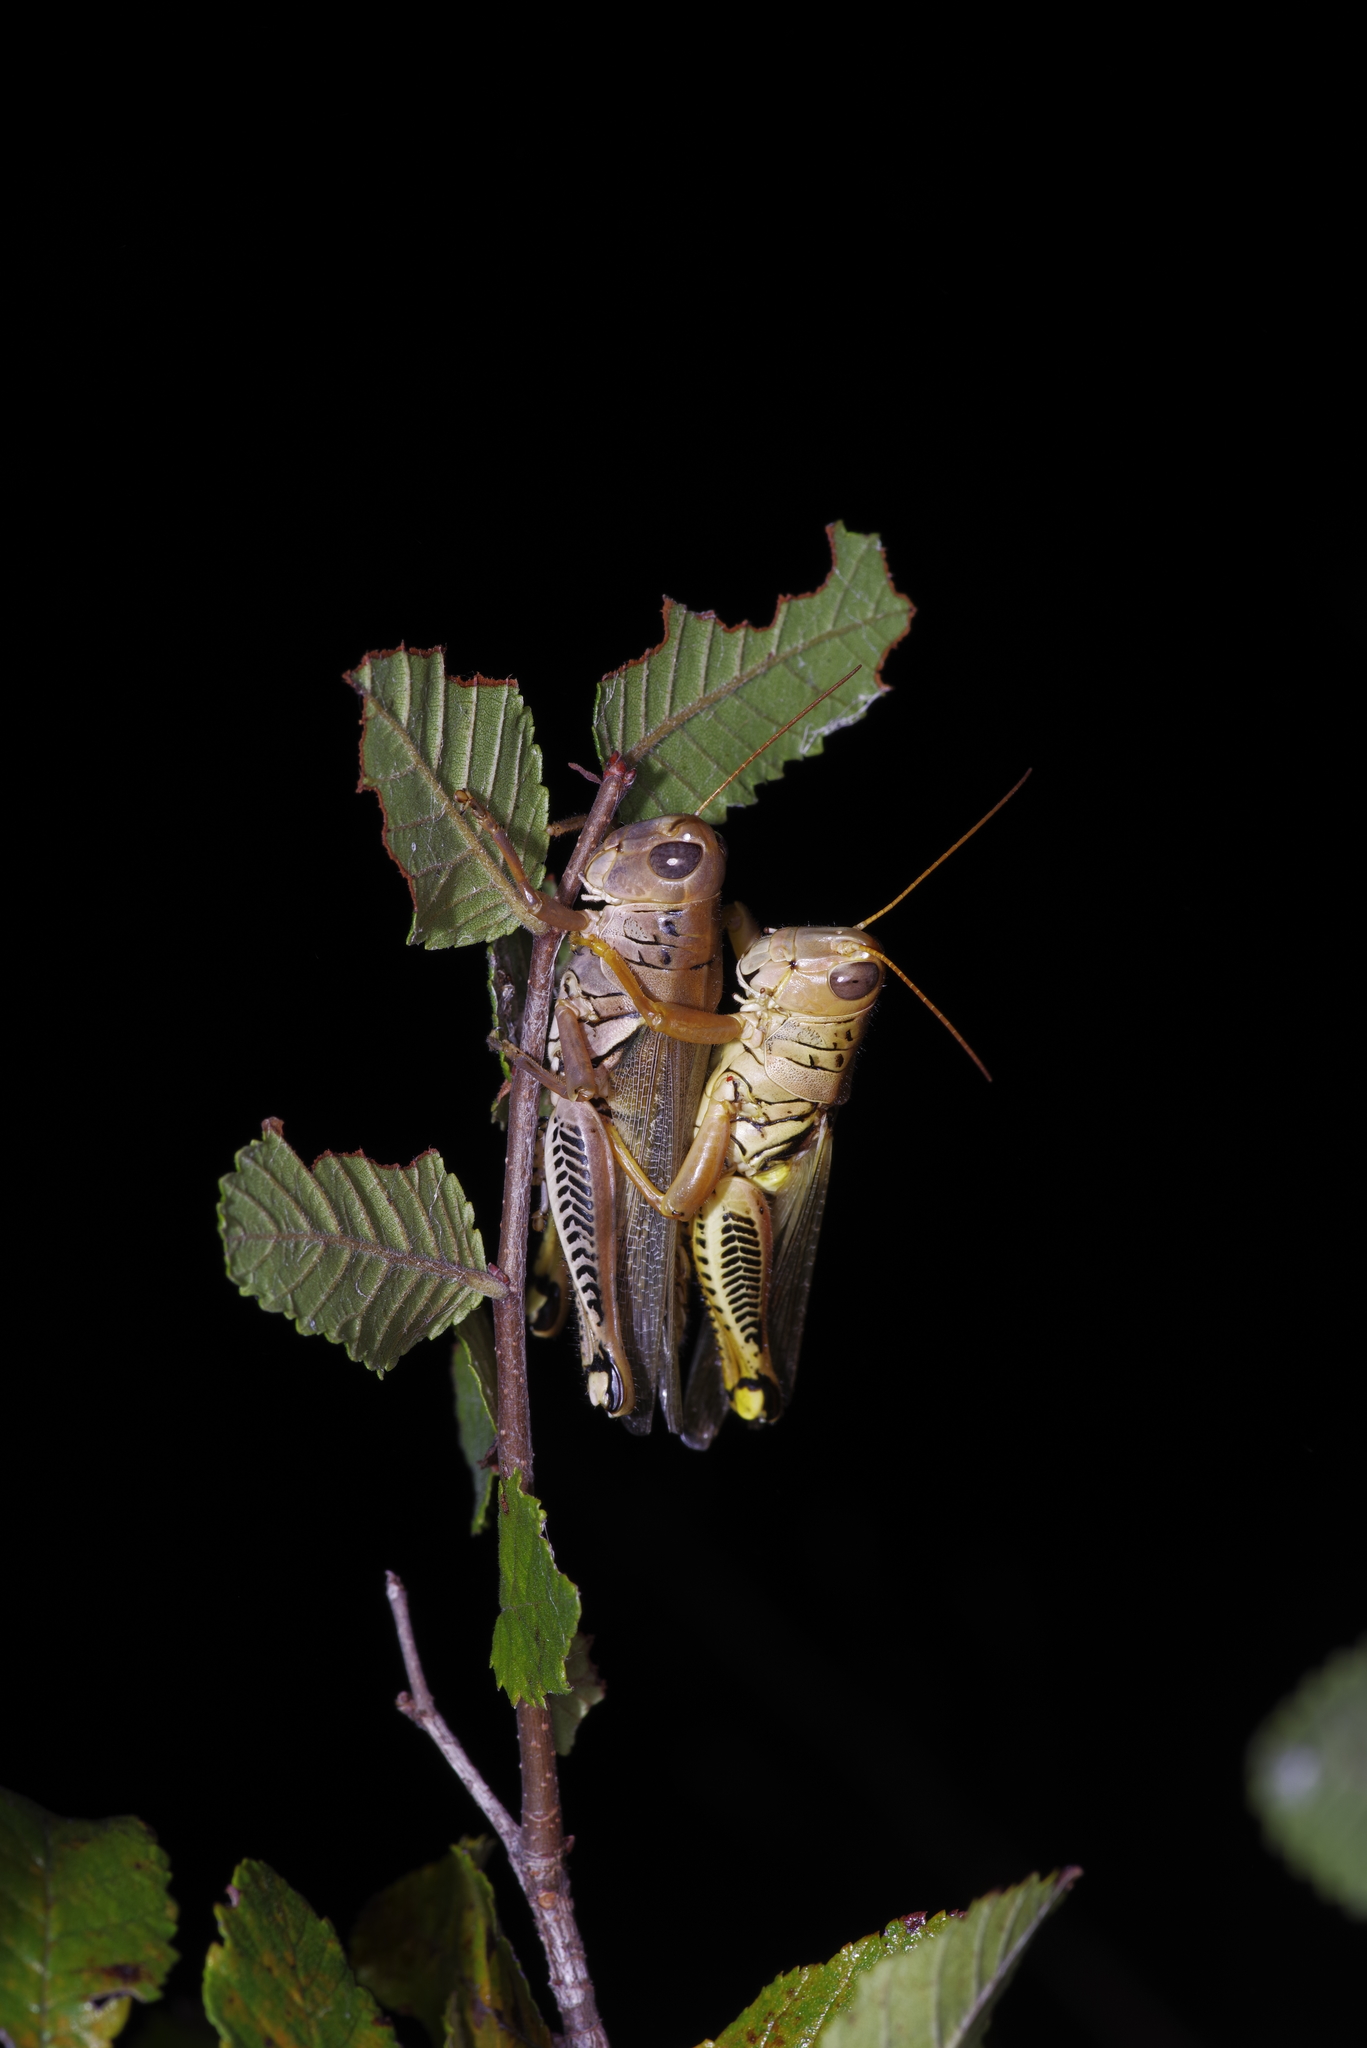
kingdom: Animalia
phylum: Arthropoda
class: Insecta
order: Orthoptera
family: Acrididae
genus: Melanoplus
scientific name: Melanoplus differentialis
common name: Differential grasshopper
